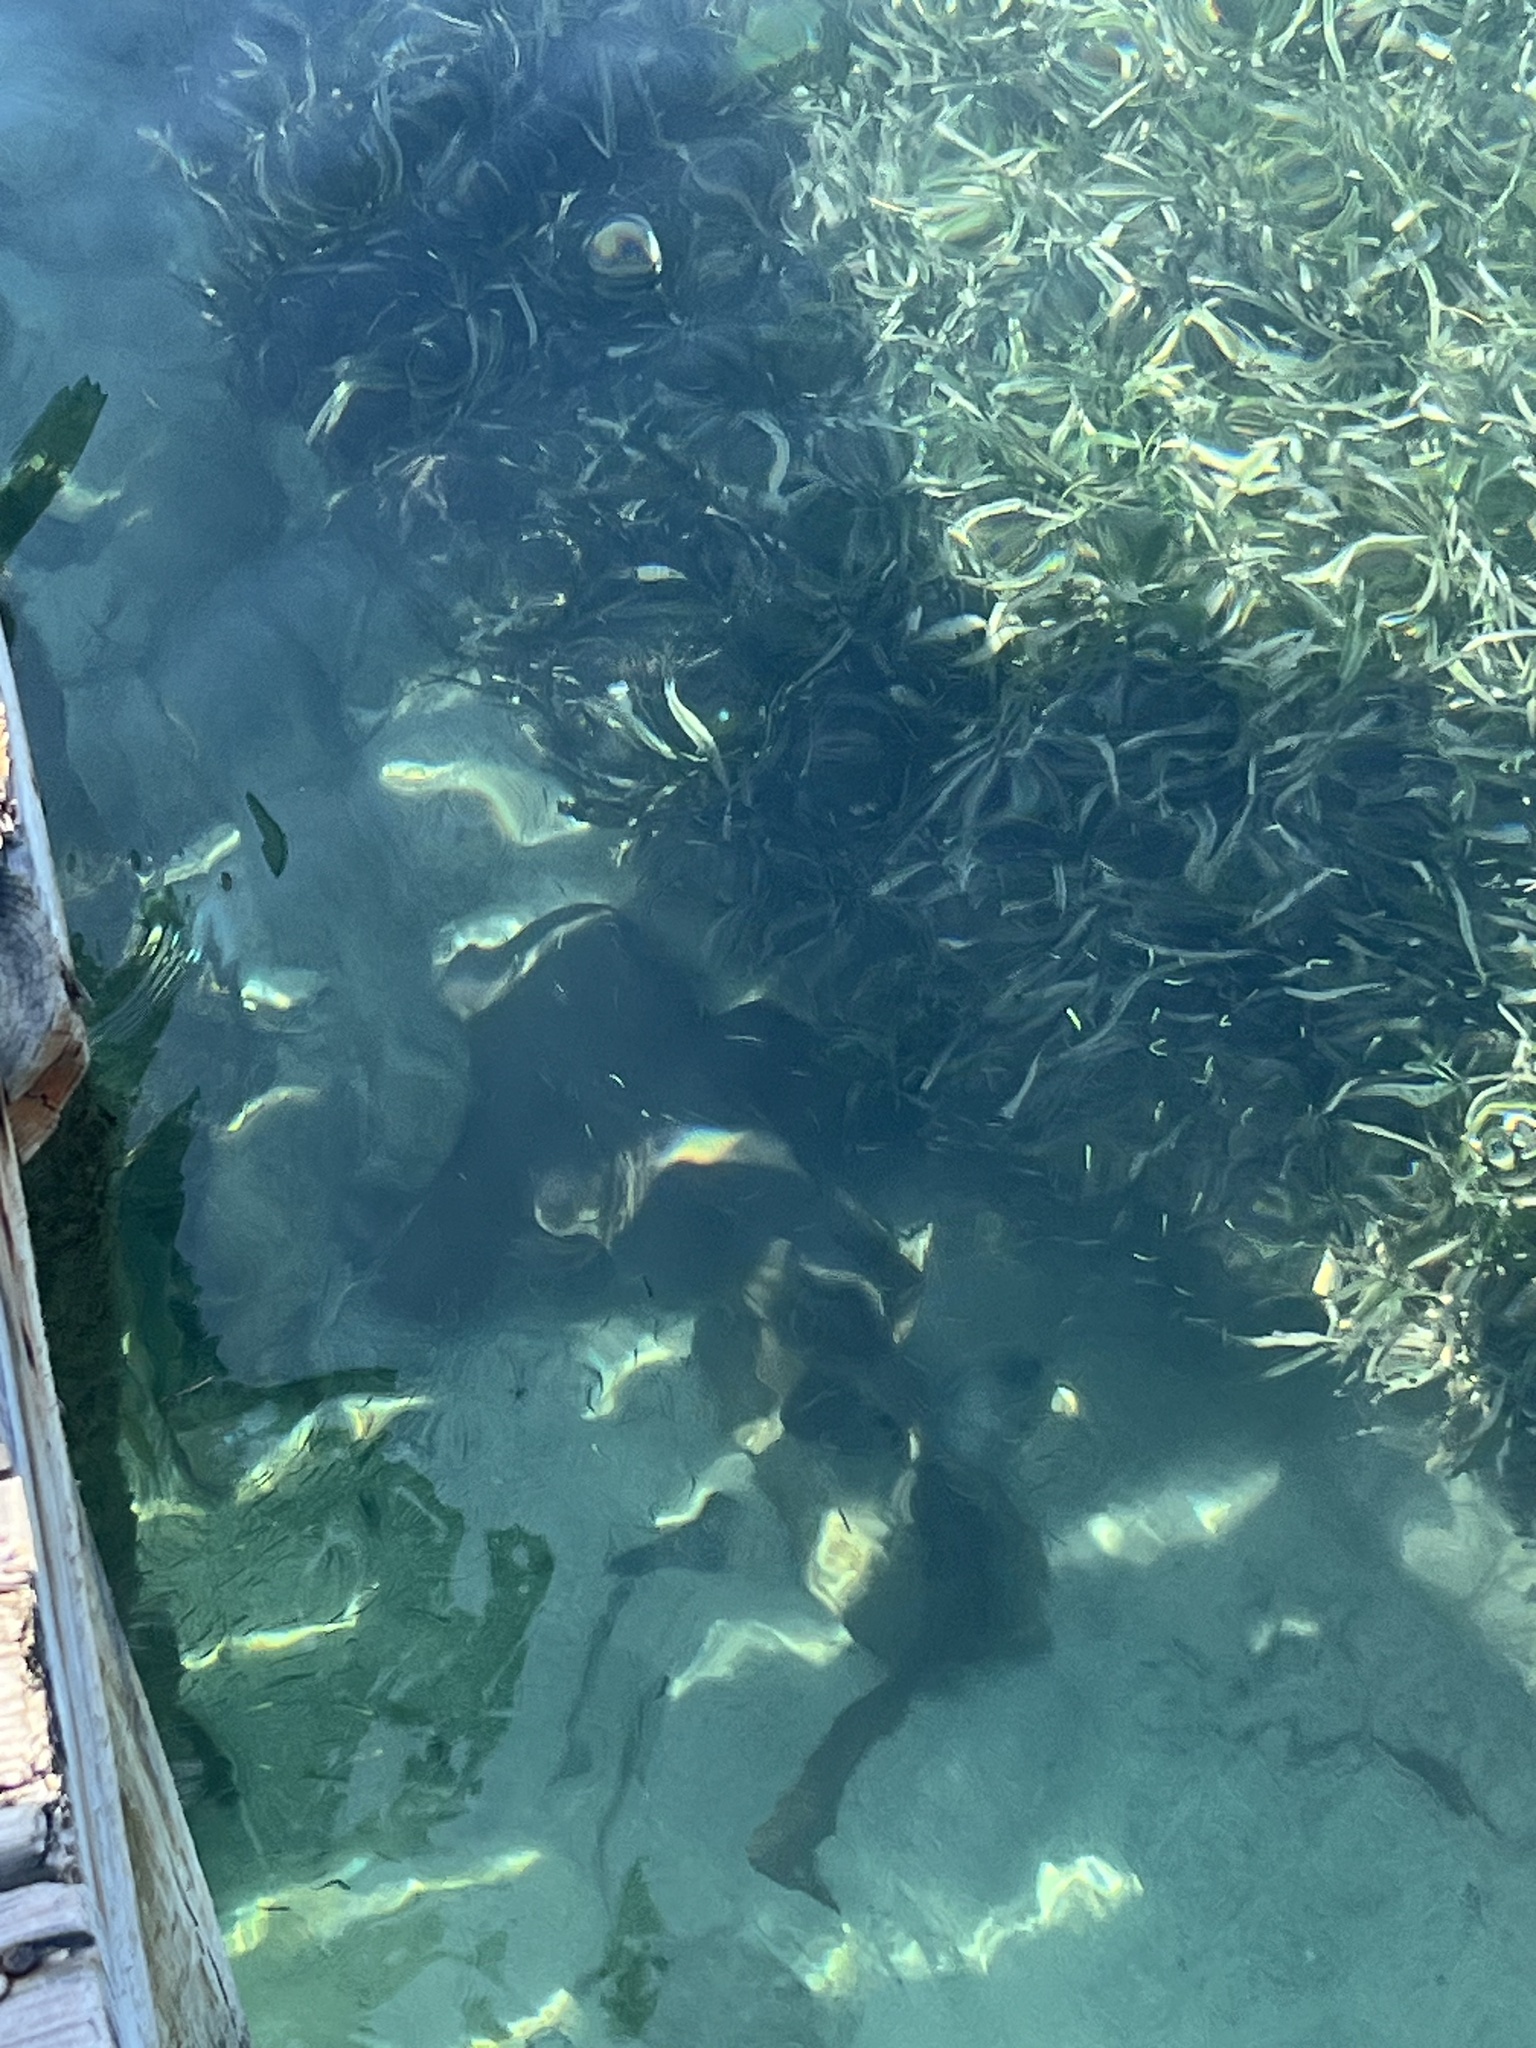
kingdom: Animalia
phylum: Chordata
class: Elasmobranchii
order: Orectolobiformes
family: Ginglymostomatidae
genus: Ginglymostoma
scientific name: Ginglymostoma cirratum
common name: Nurse shark
